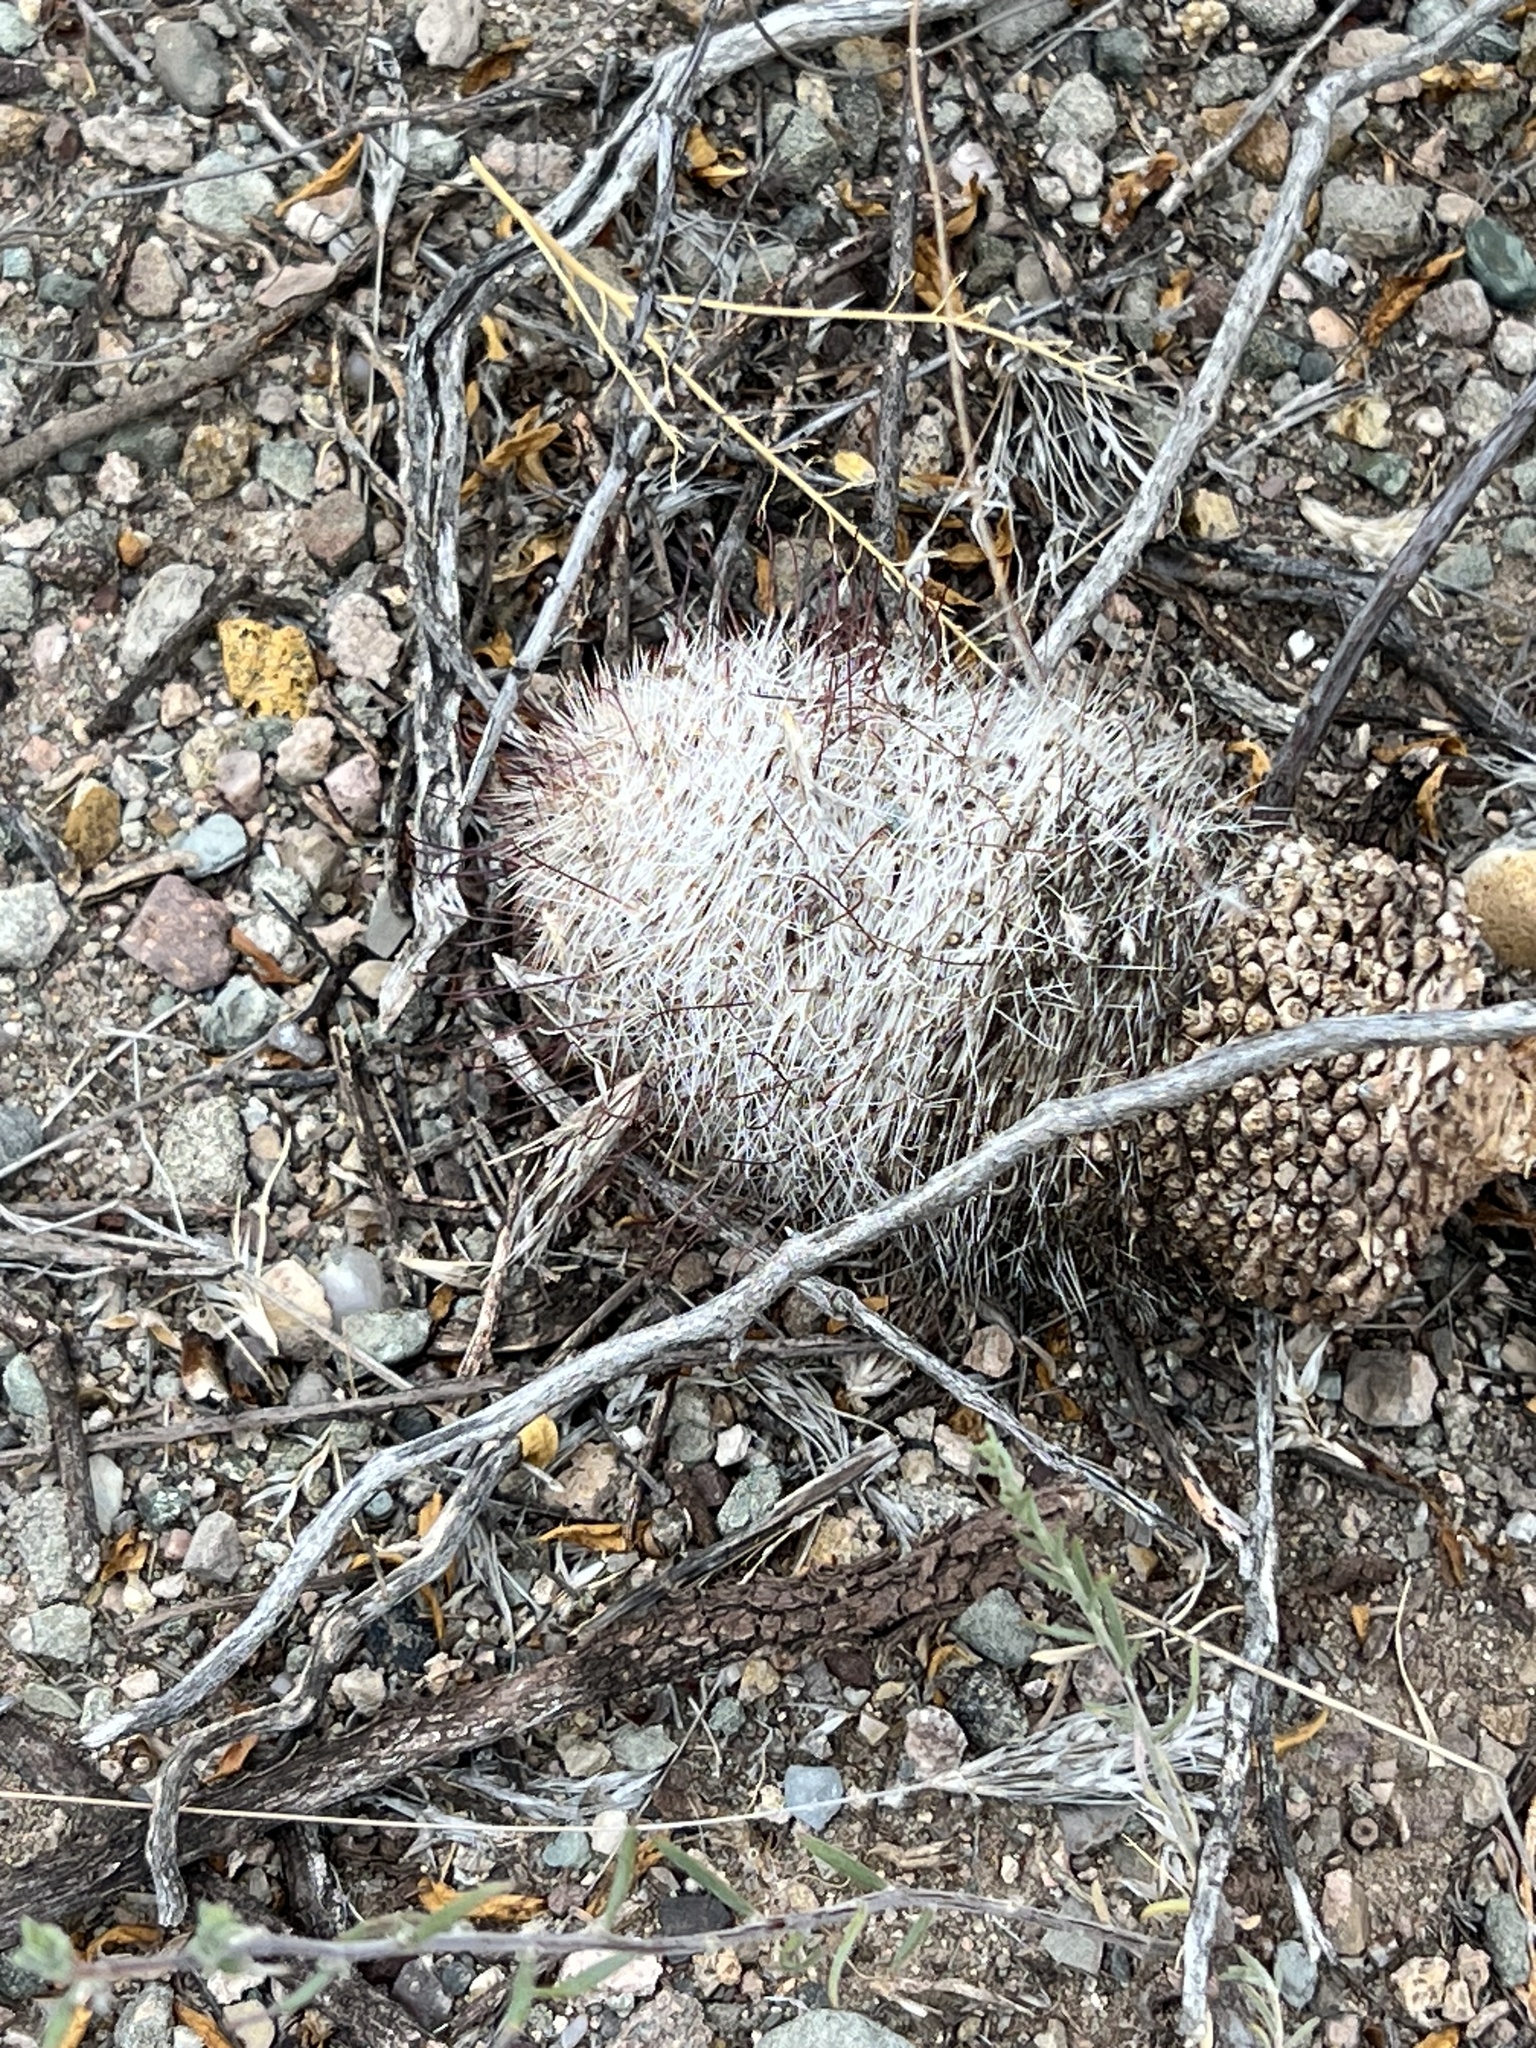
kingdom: Plantae
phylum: Tracheophyta
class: Magnoliopsida
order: Caryophyllales
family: Cactaceae
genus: Cochemiea
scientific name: Cochemiea grahamii
